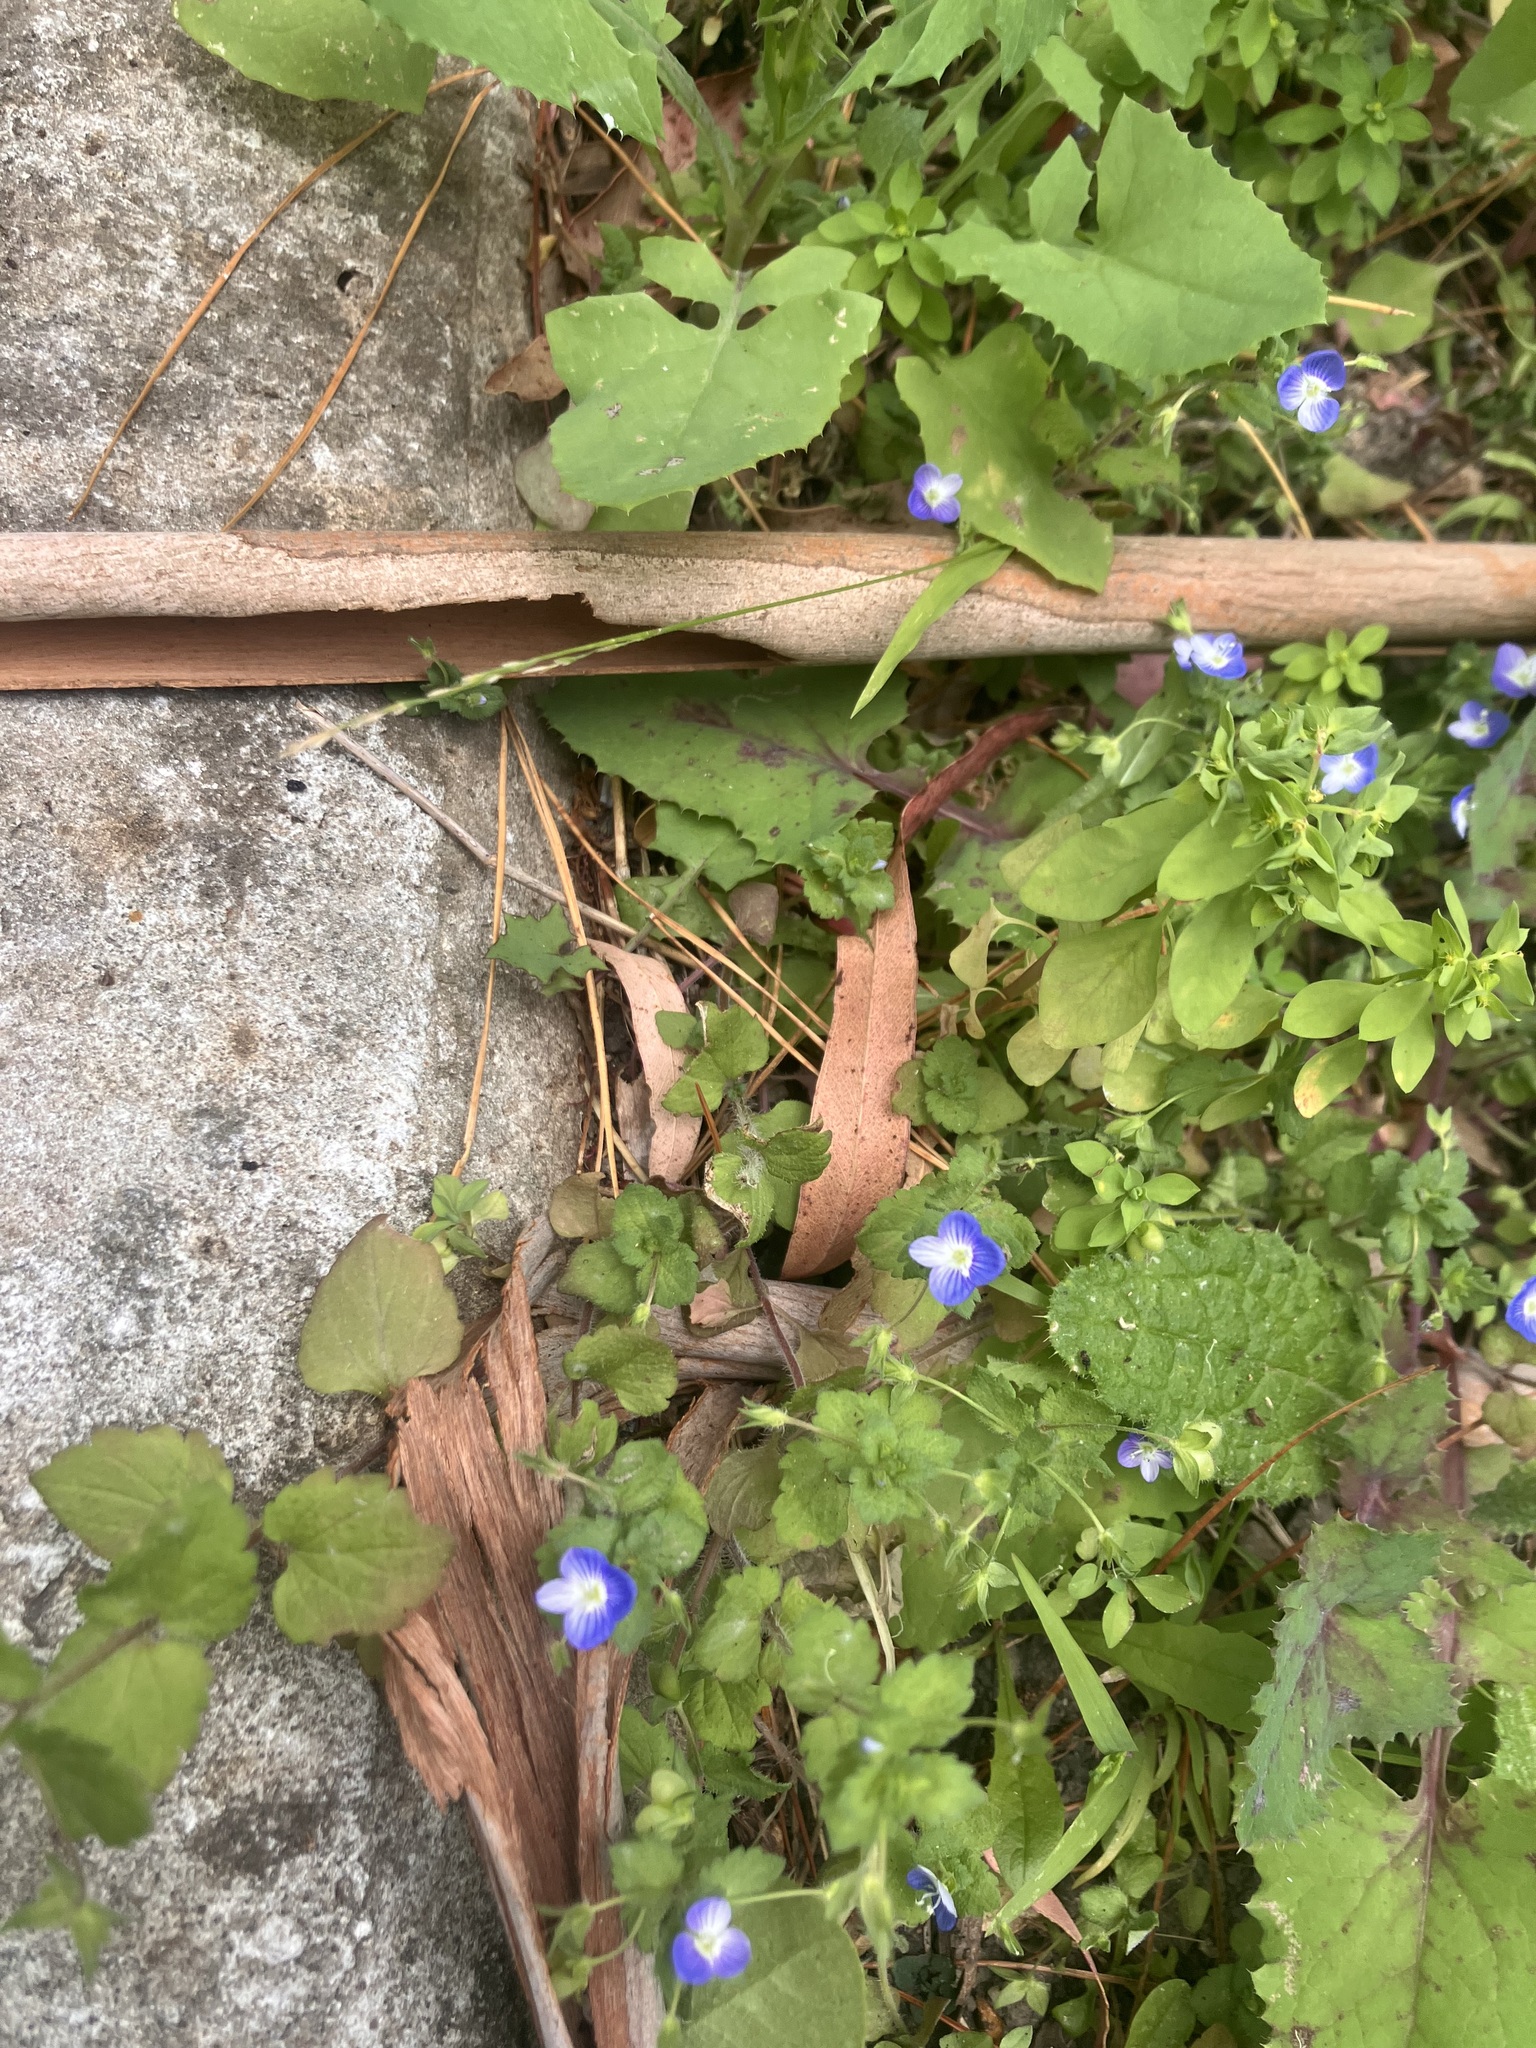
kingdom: Plantae
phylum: Tracheophyta
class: Magnoliopsida
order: Lamiales
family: Plantaginaceae
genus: Veronica
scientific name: Veronica persica
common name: Common field-speedwell
